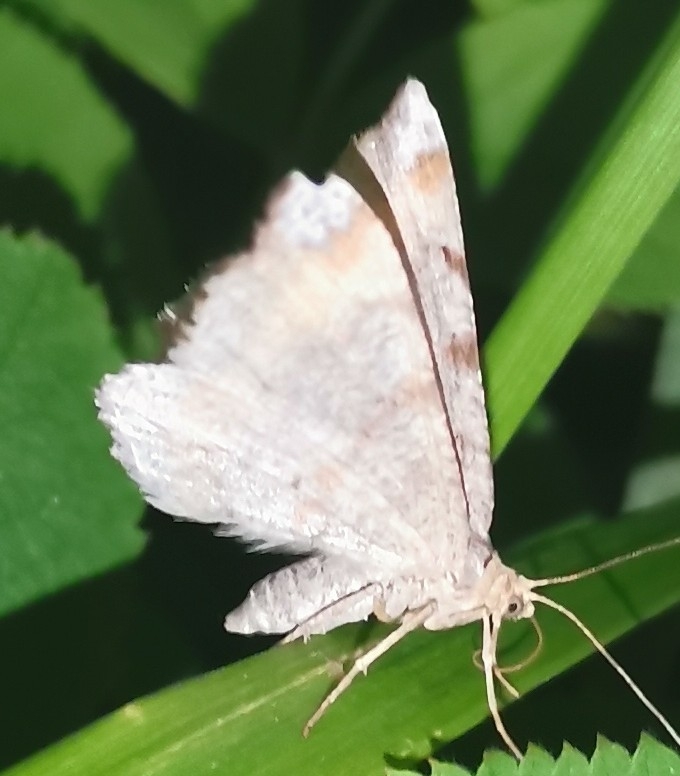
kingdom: Animalia
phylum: Arthropoda
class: Insecta
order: Lepidoptera
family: Geometridae
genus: Macaria
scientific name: Macaria liturata
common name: Tawny-barred angle
